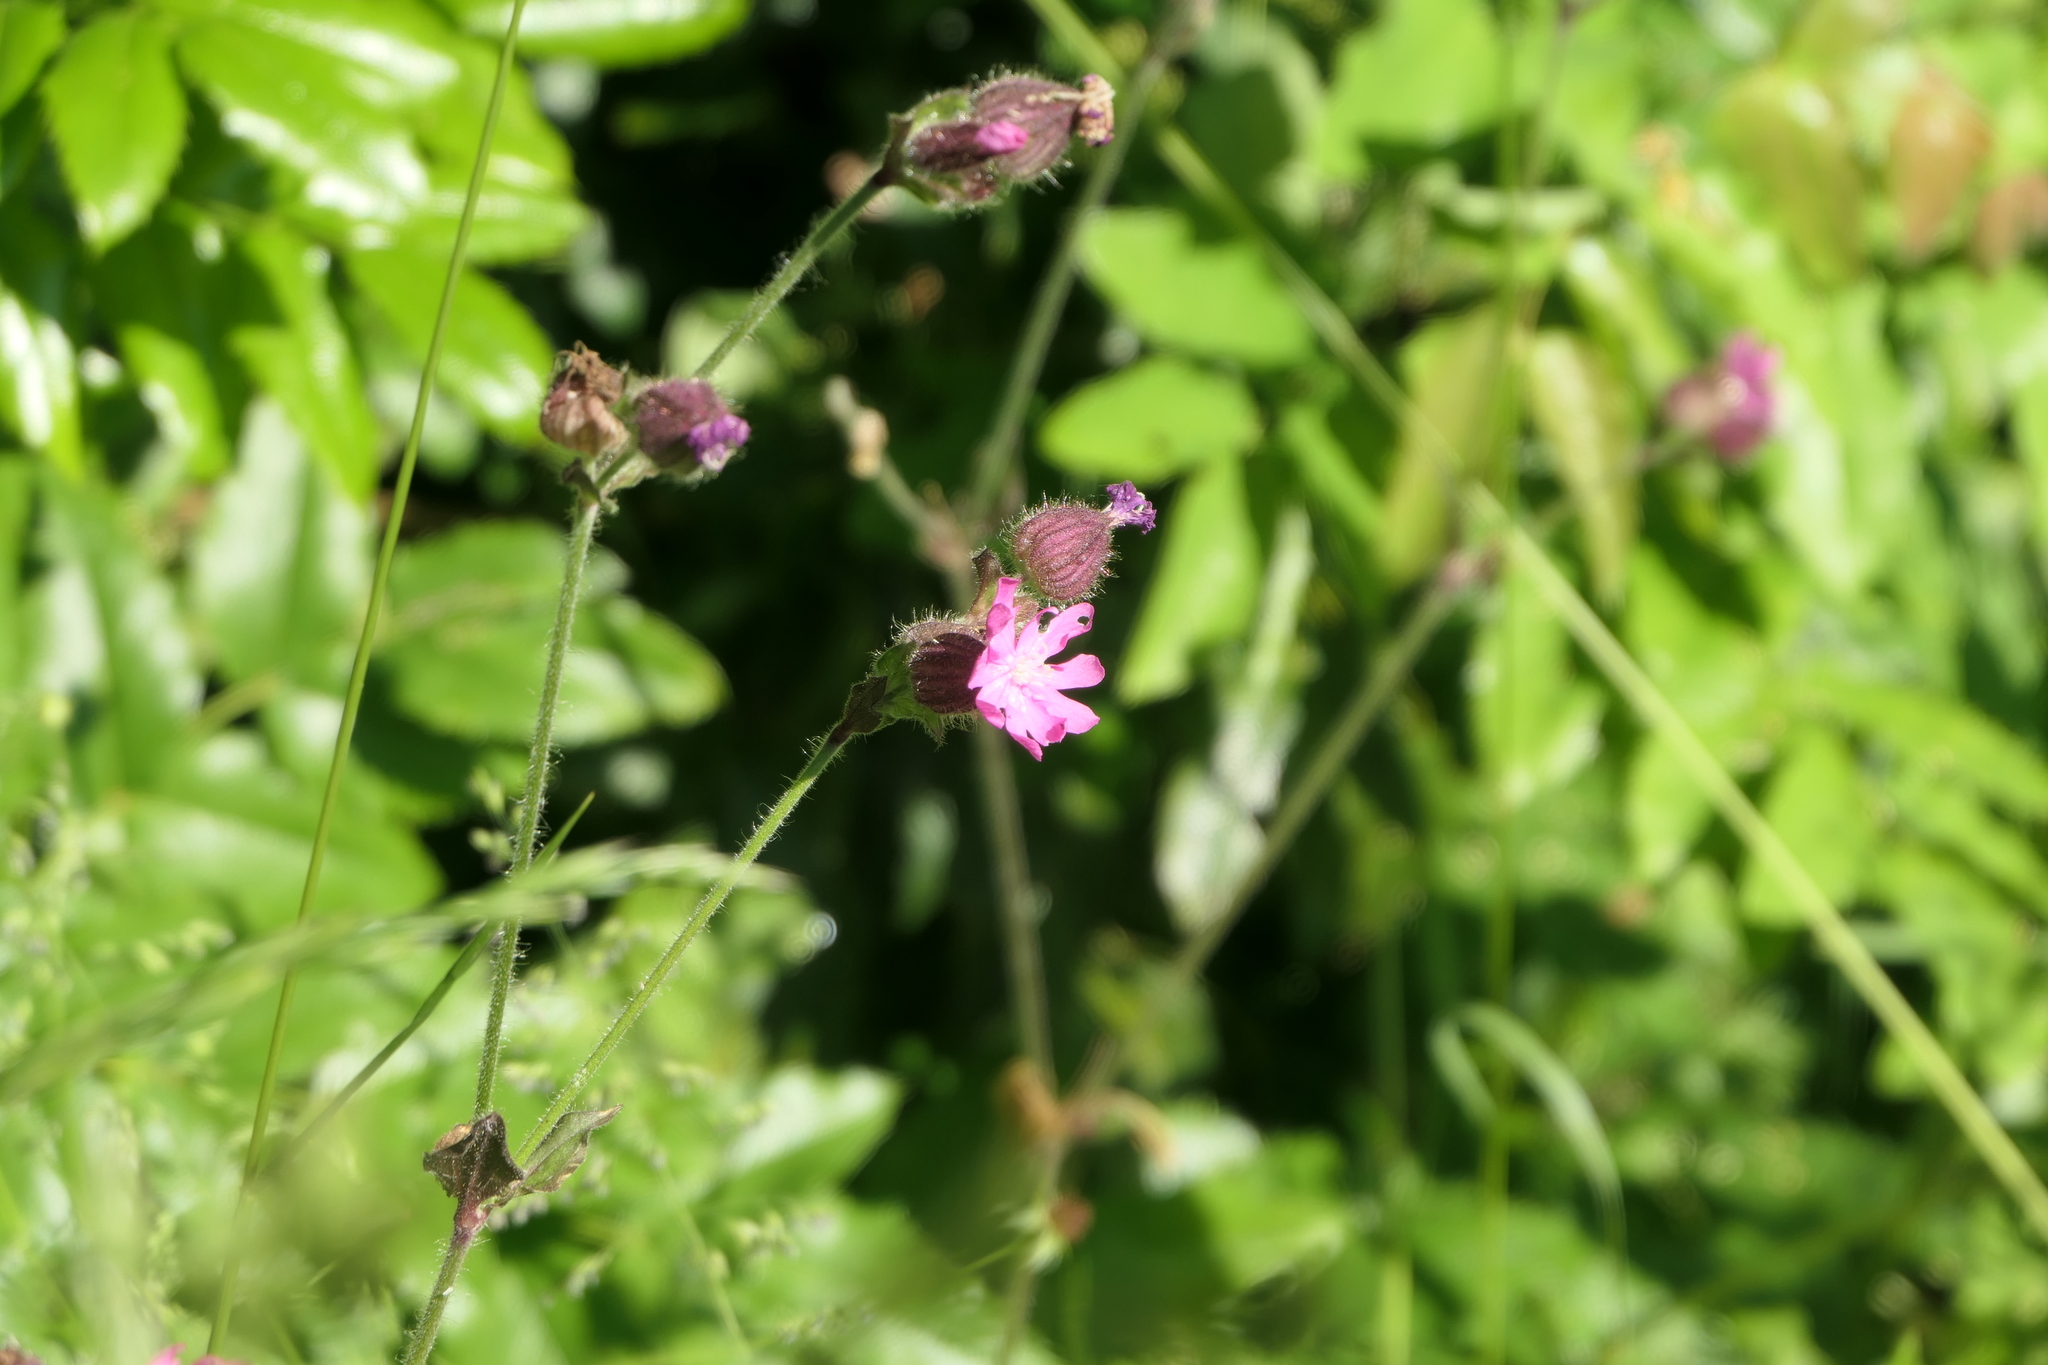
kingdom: Plantae
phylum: Tracheophyta
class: Magnoliopsida
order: Caryophyllales
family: Caryophyllaceae
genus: Silene
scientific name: Silene dioica
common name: Red campion
